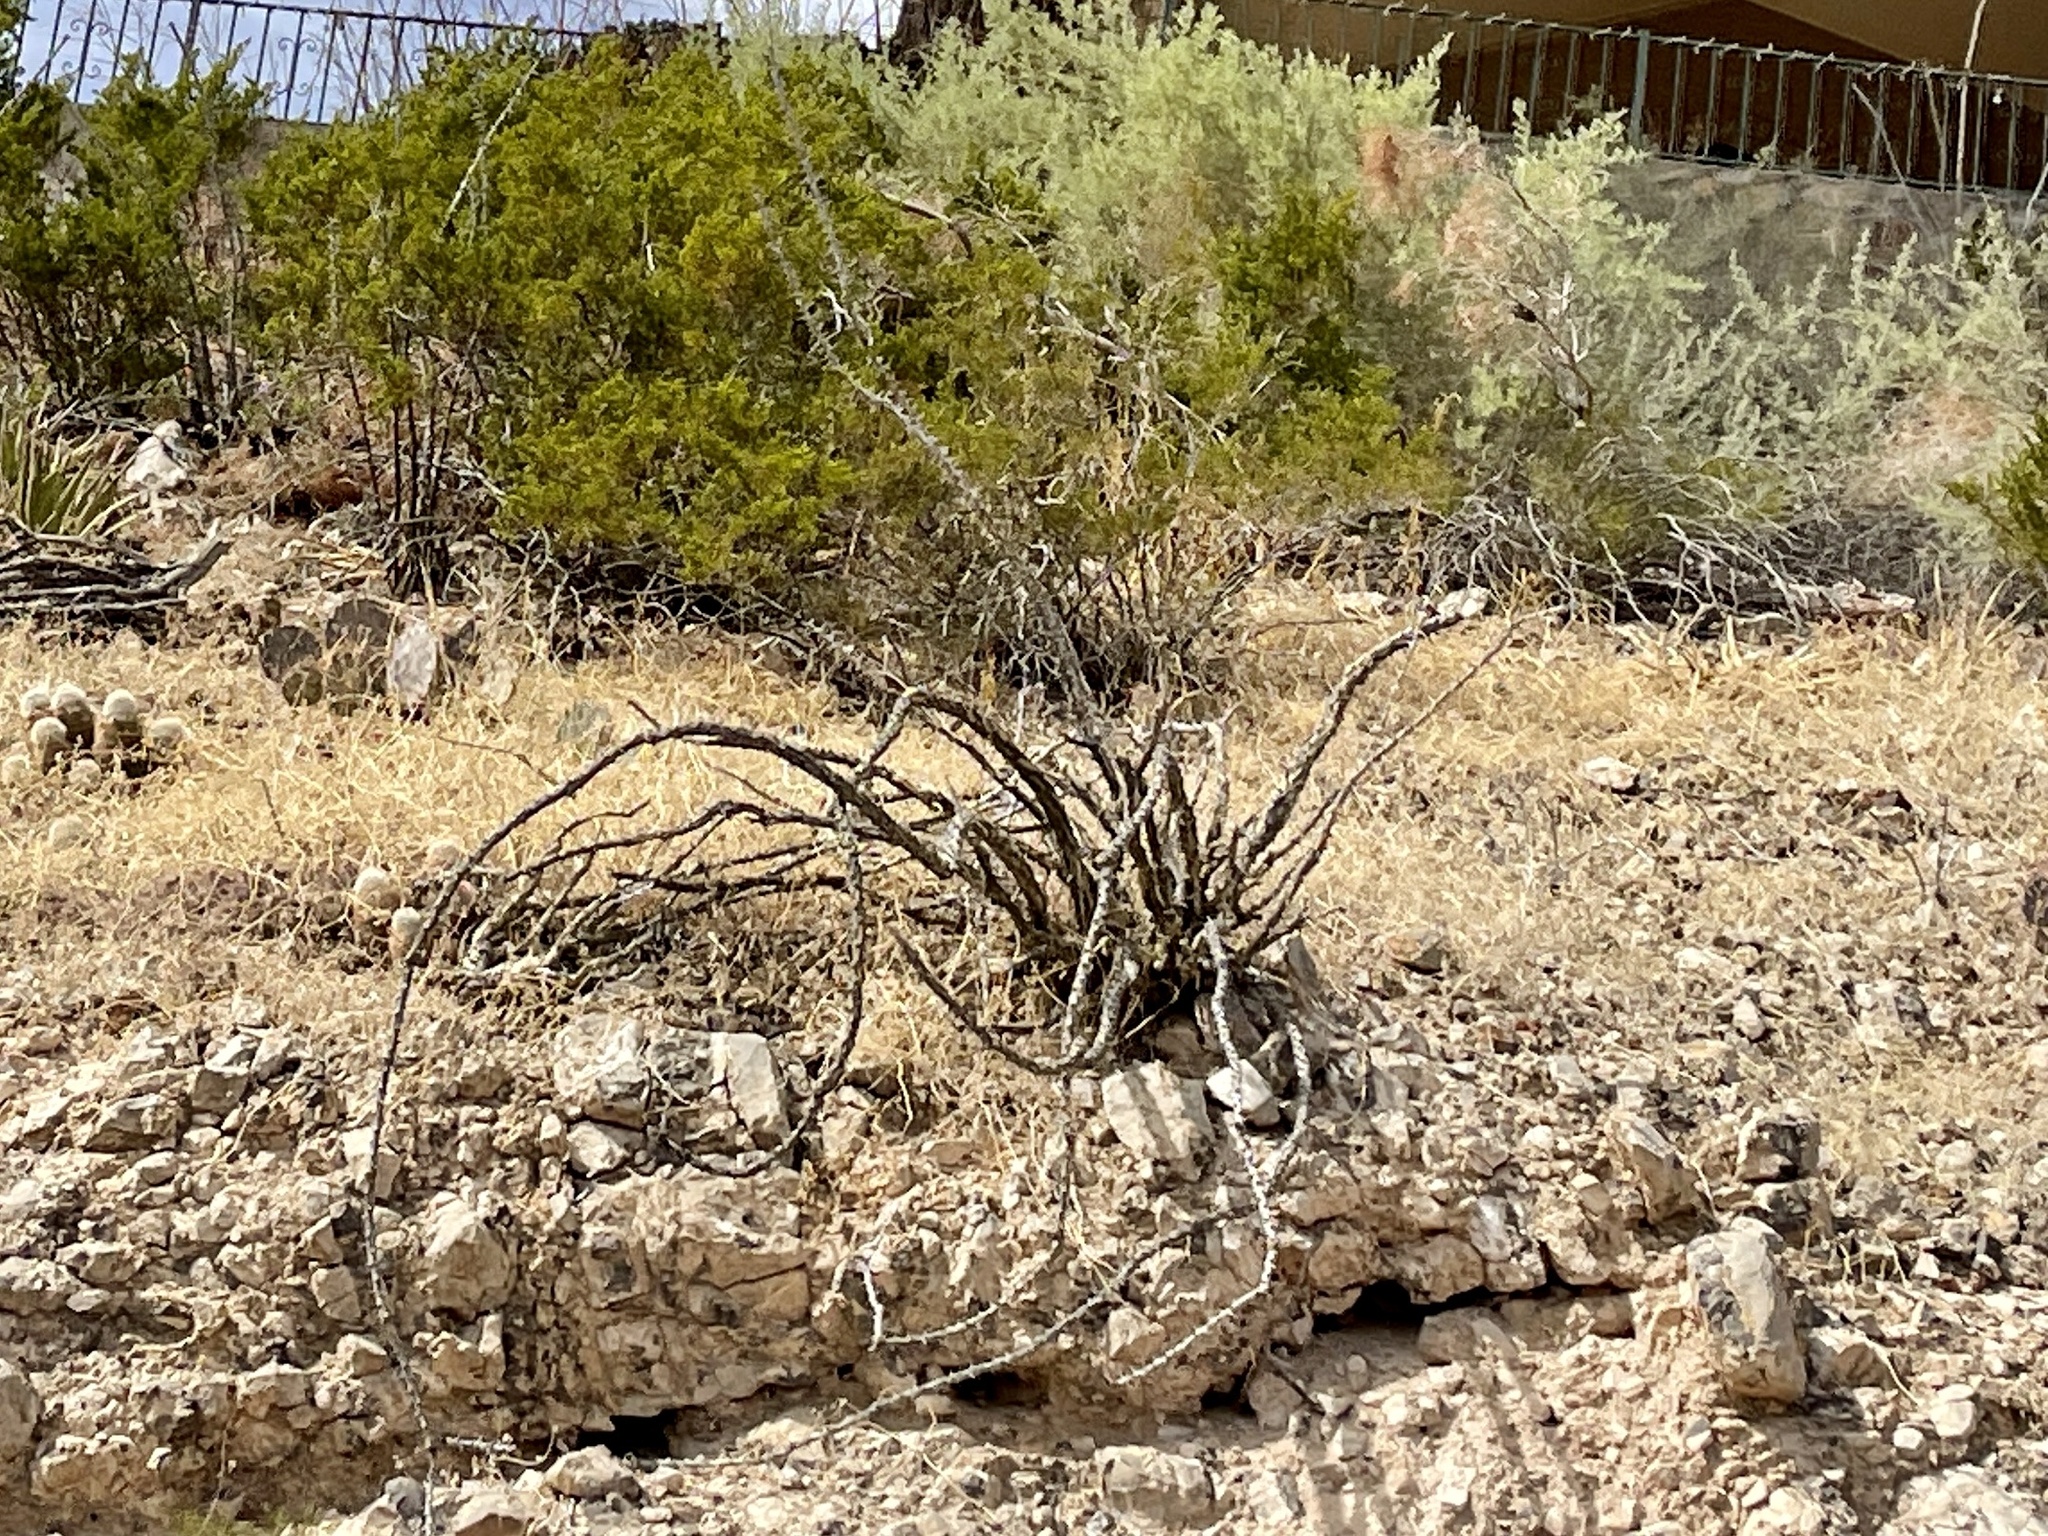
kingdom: Plantae
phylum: Tracheophyta
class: Magnoliopsida
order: Ericales
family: Fouquieriaceae
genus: Fouquieria
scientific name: Fouquieria splendens
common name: Vine-cactus
